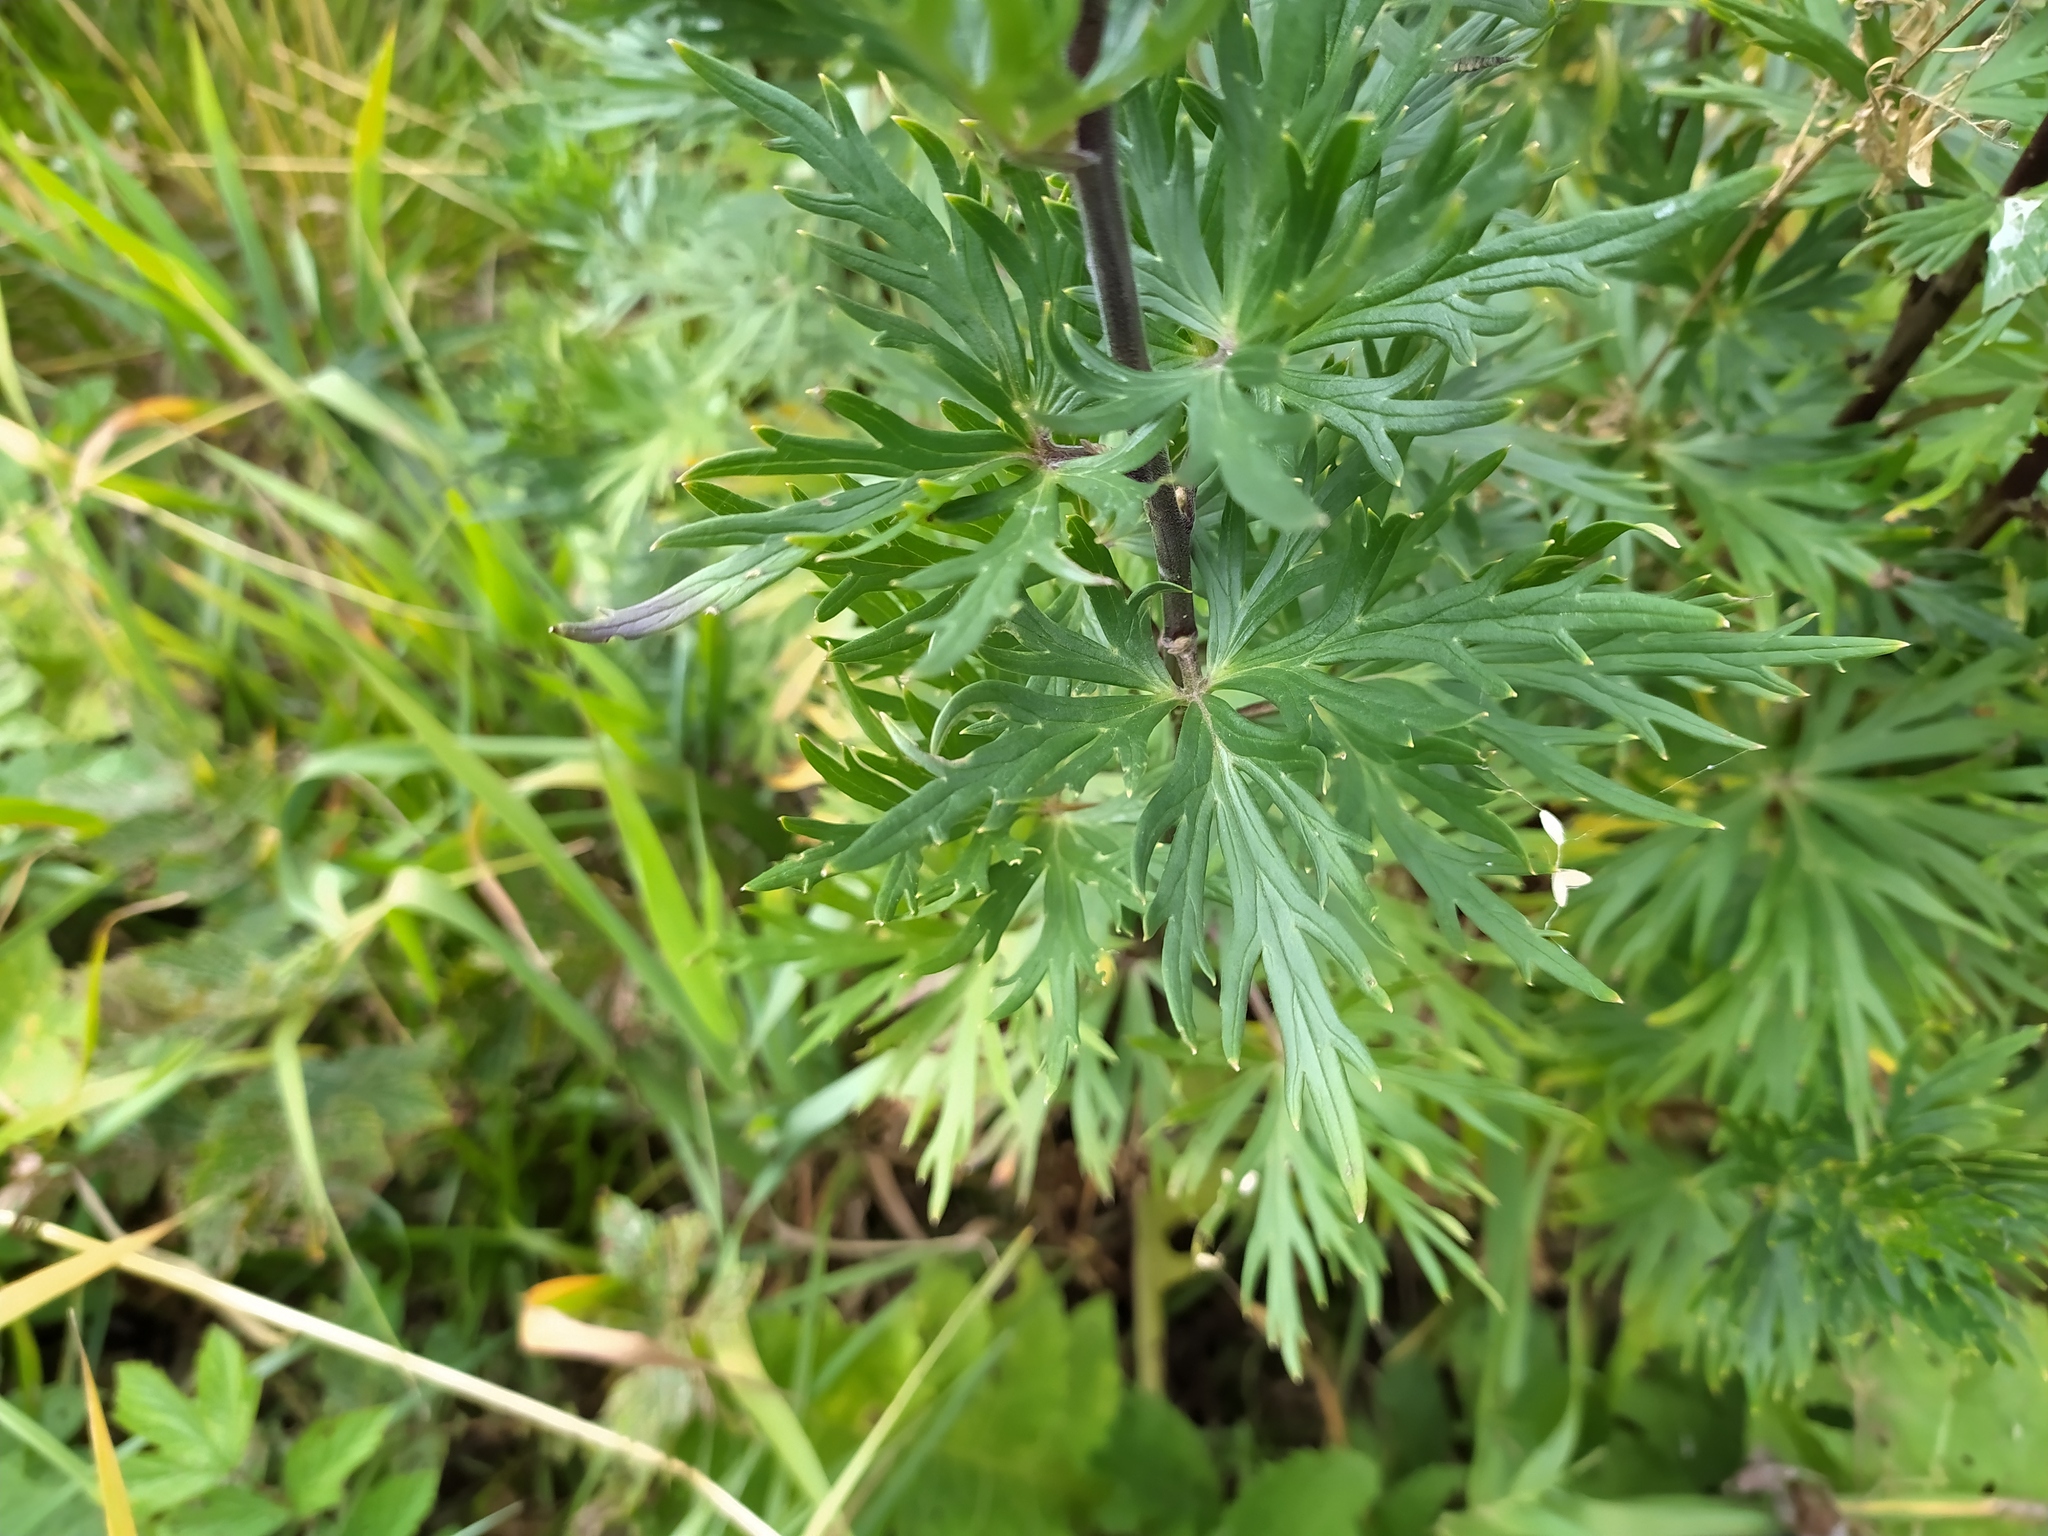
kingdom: Plantae
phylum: Tracheophyta
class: Magnoliopsida
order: Ranunculales
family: Ranunculaceae
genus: Aconitum
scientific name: Aconitum napellus
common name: Garden monkshood
